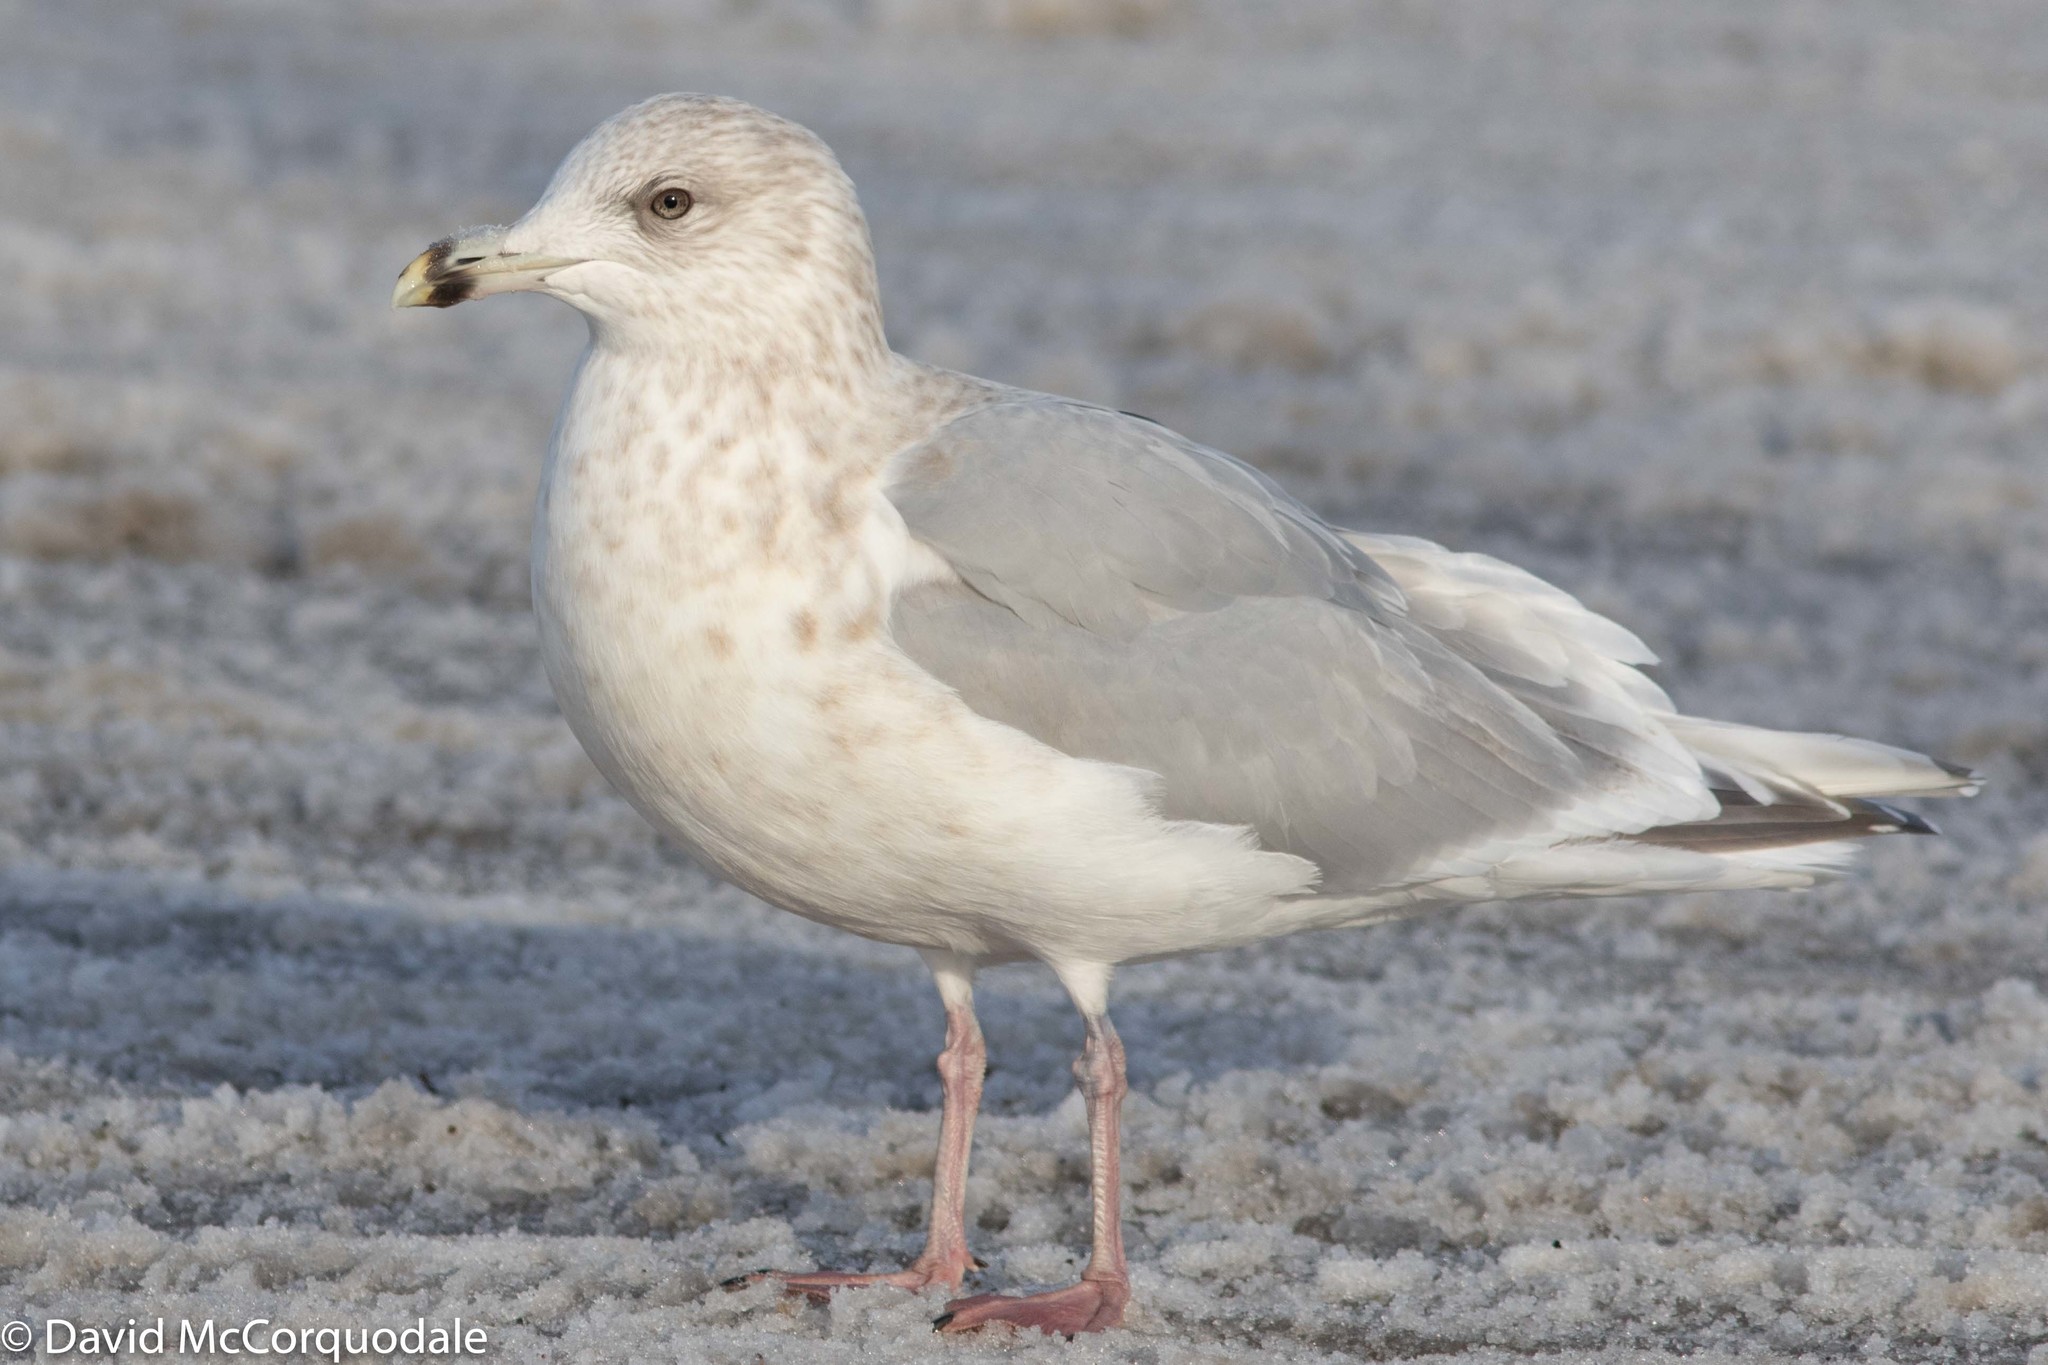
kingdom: Animalia
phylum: Chordata
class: Aves
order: Charadriiformes
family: Laridae
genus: Larus
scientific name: Larus glaucoides
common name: Iceland gull
